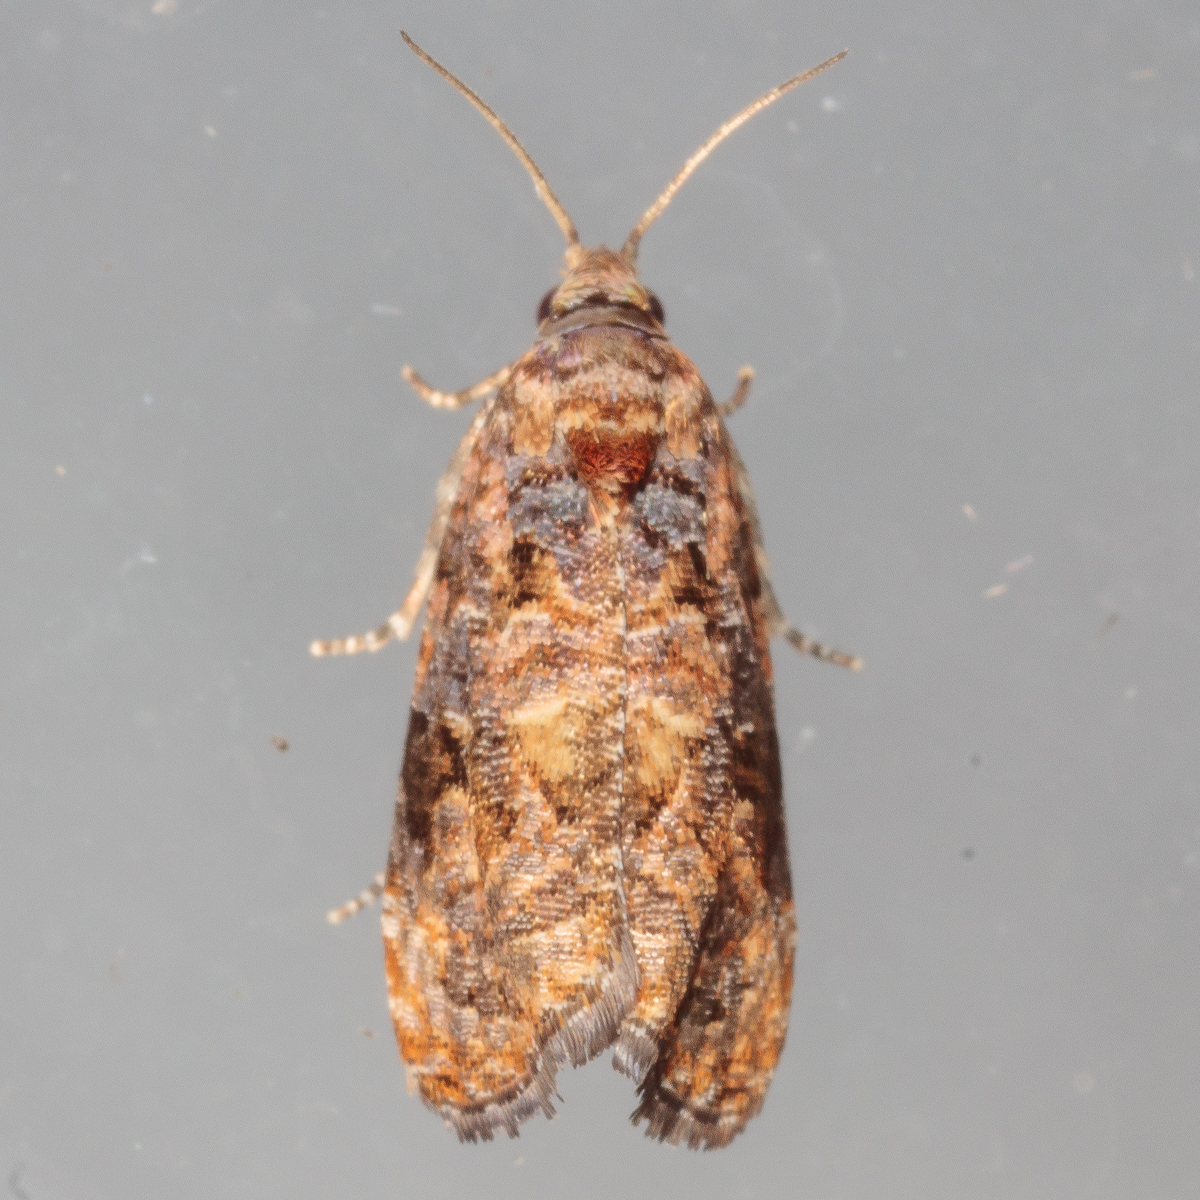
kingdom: Animalia
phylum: Arthropoda
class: Insecta
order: Lepidoptera
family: Tortricidae
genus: Endothenia
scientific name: Endothenia hebesana
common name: Verbena bud moth
